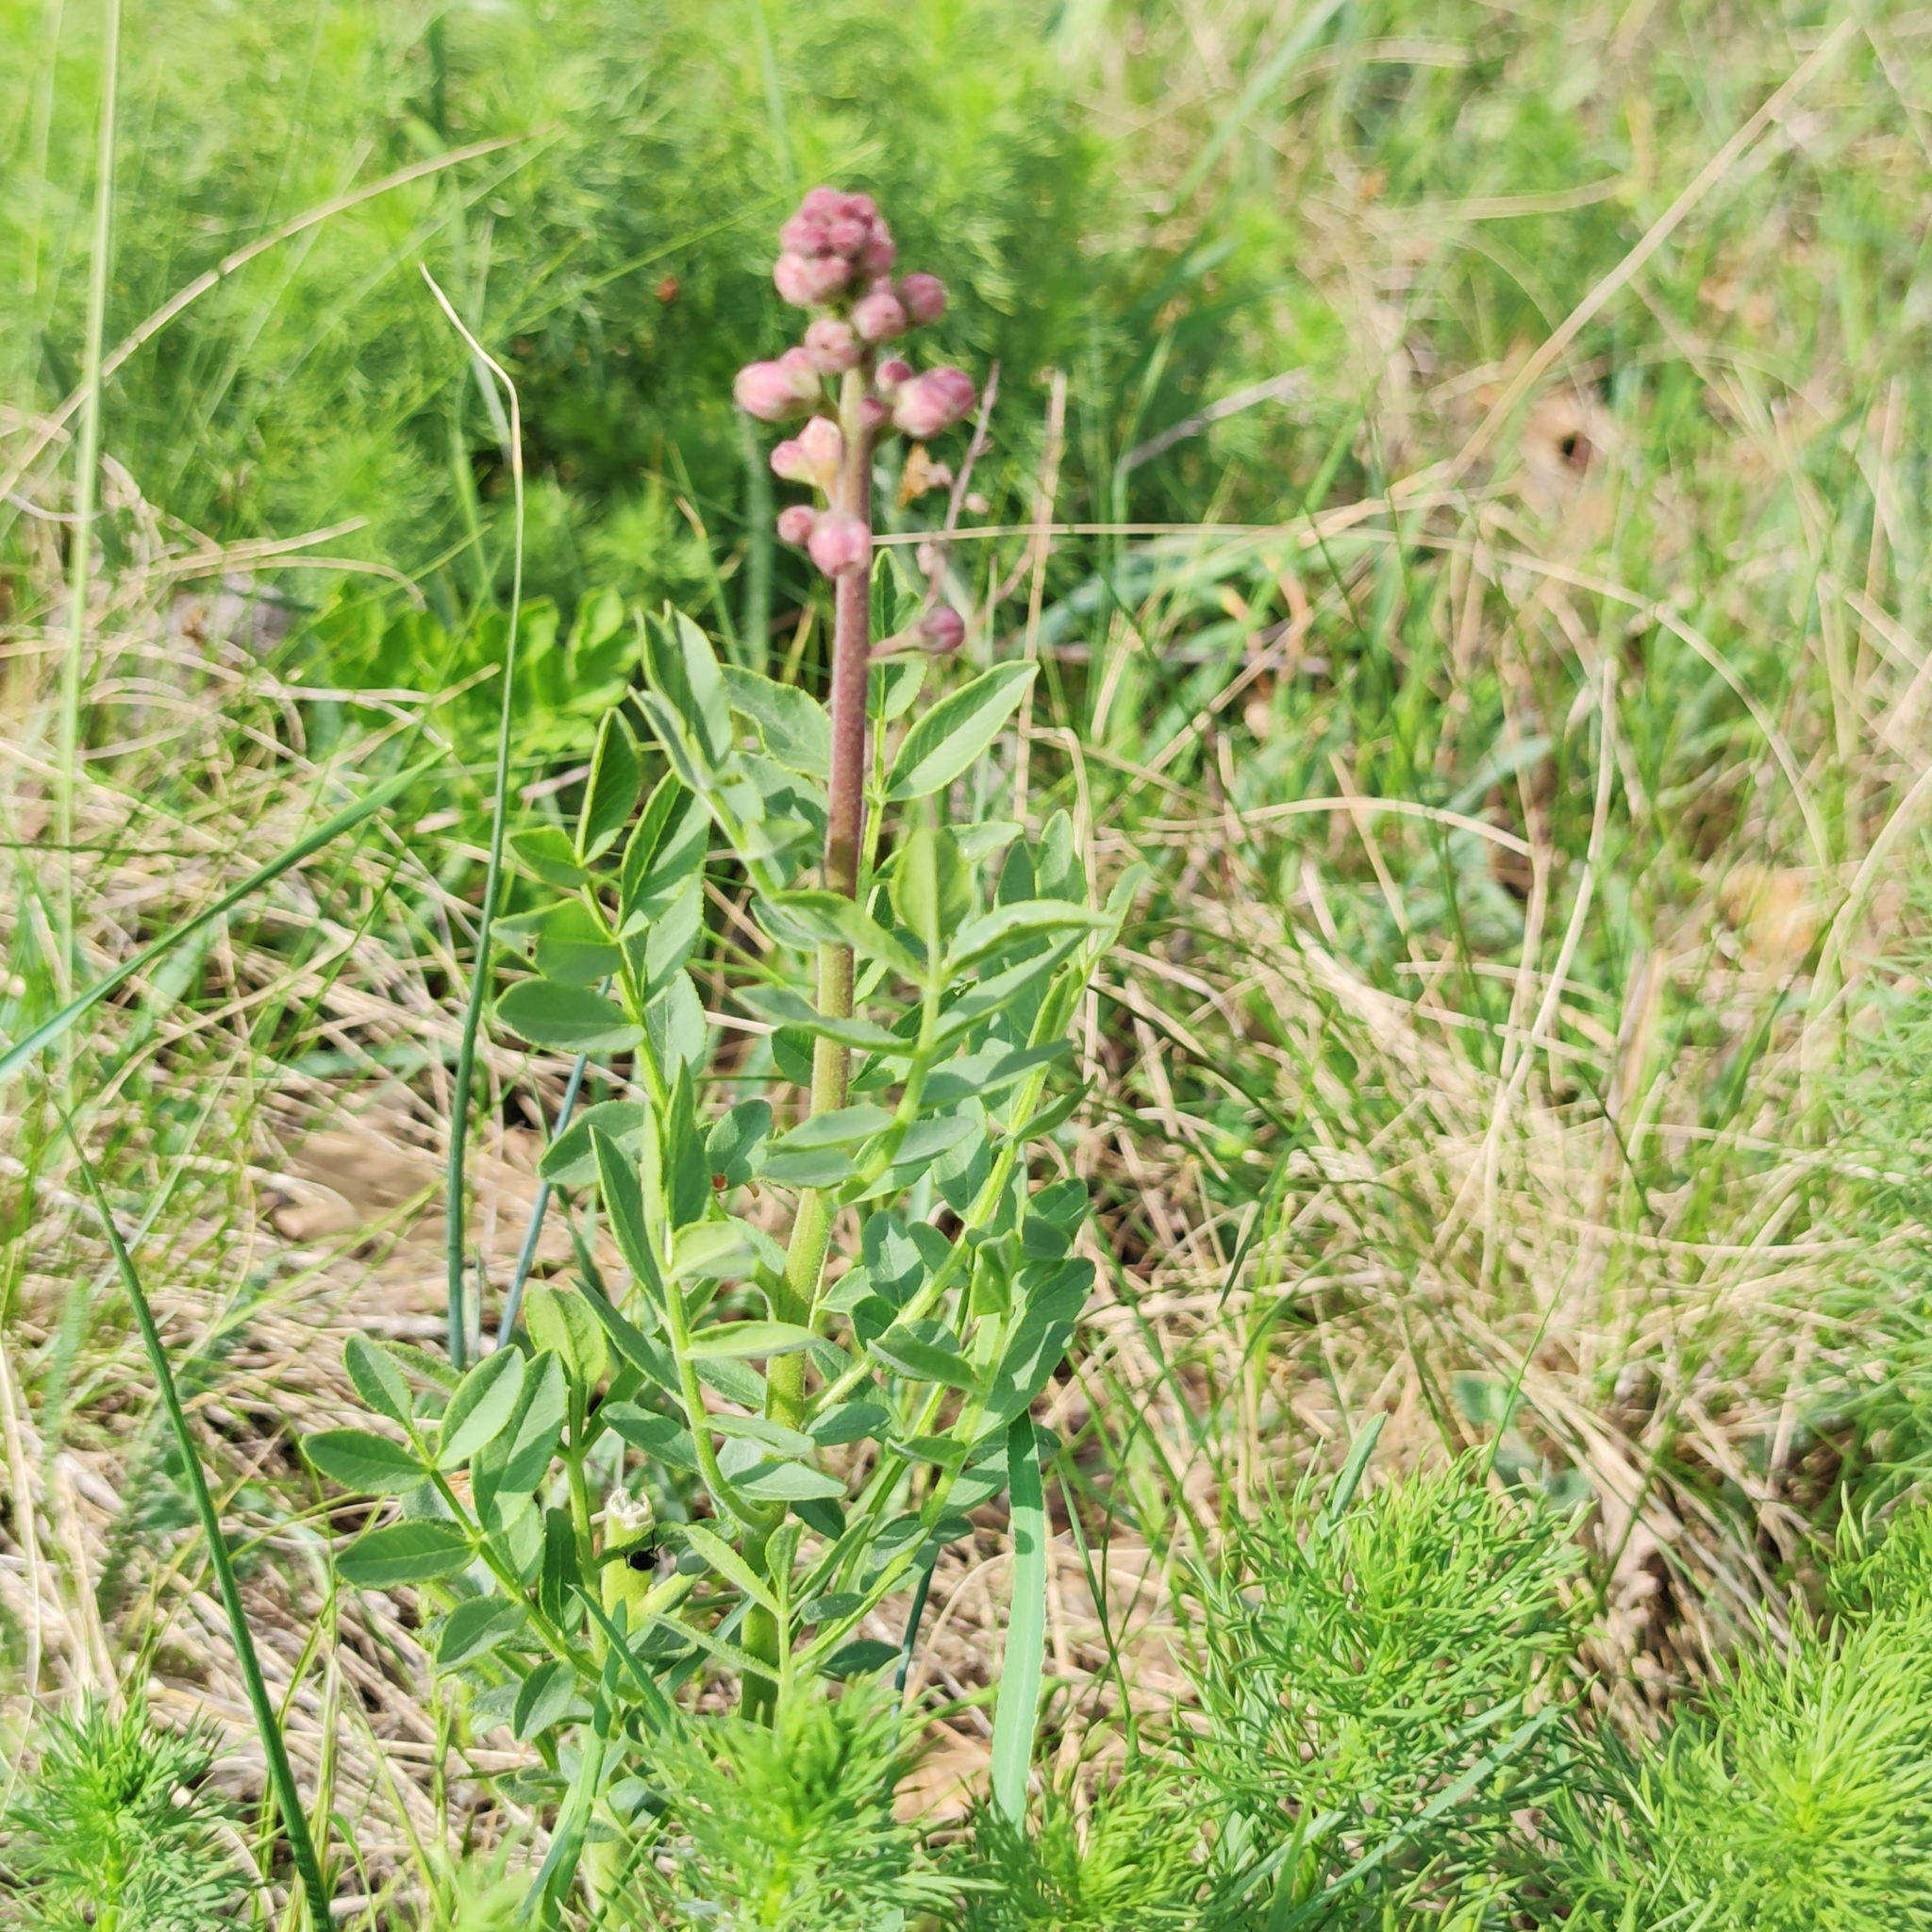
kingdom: Plantae
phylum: Tracheophyta
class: Magnoliopsida
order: Sapindales
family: Rutaceae
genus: Dictamnus
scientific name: Dictamnus albus
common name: Gasplant
